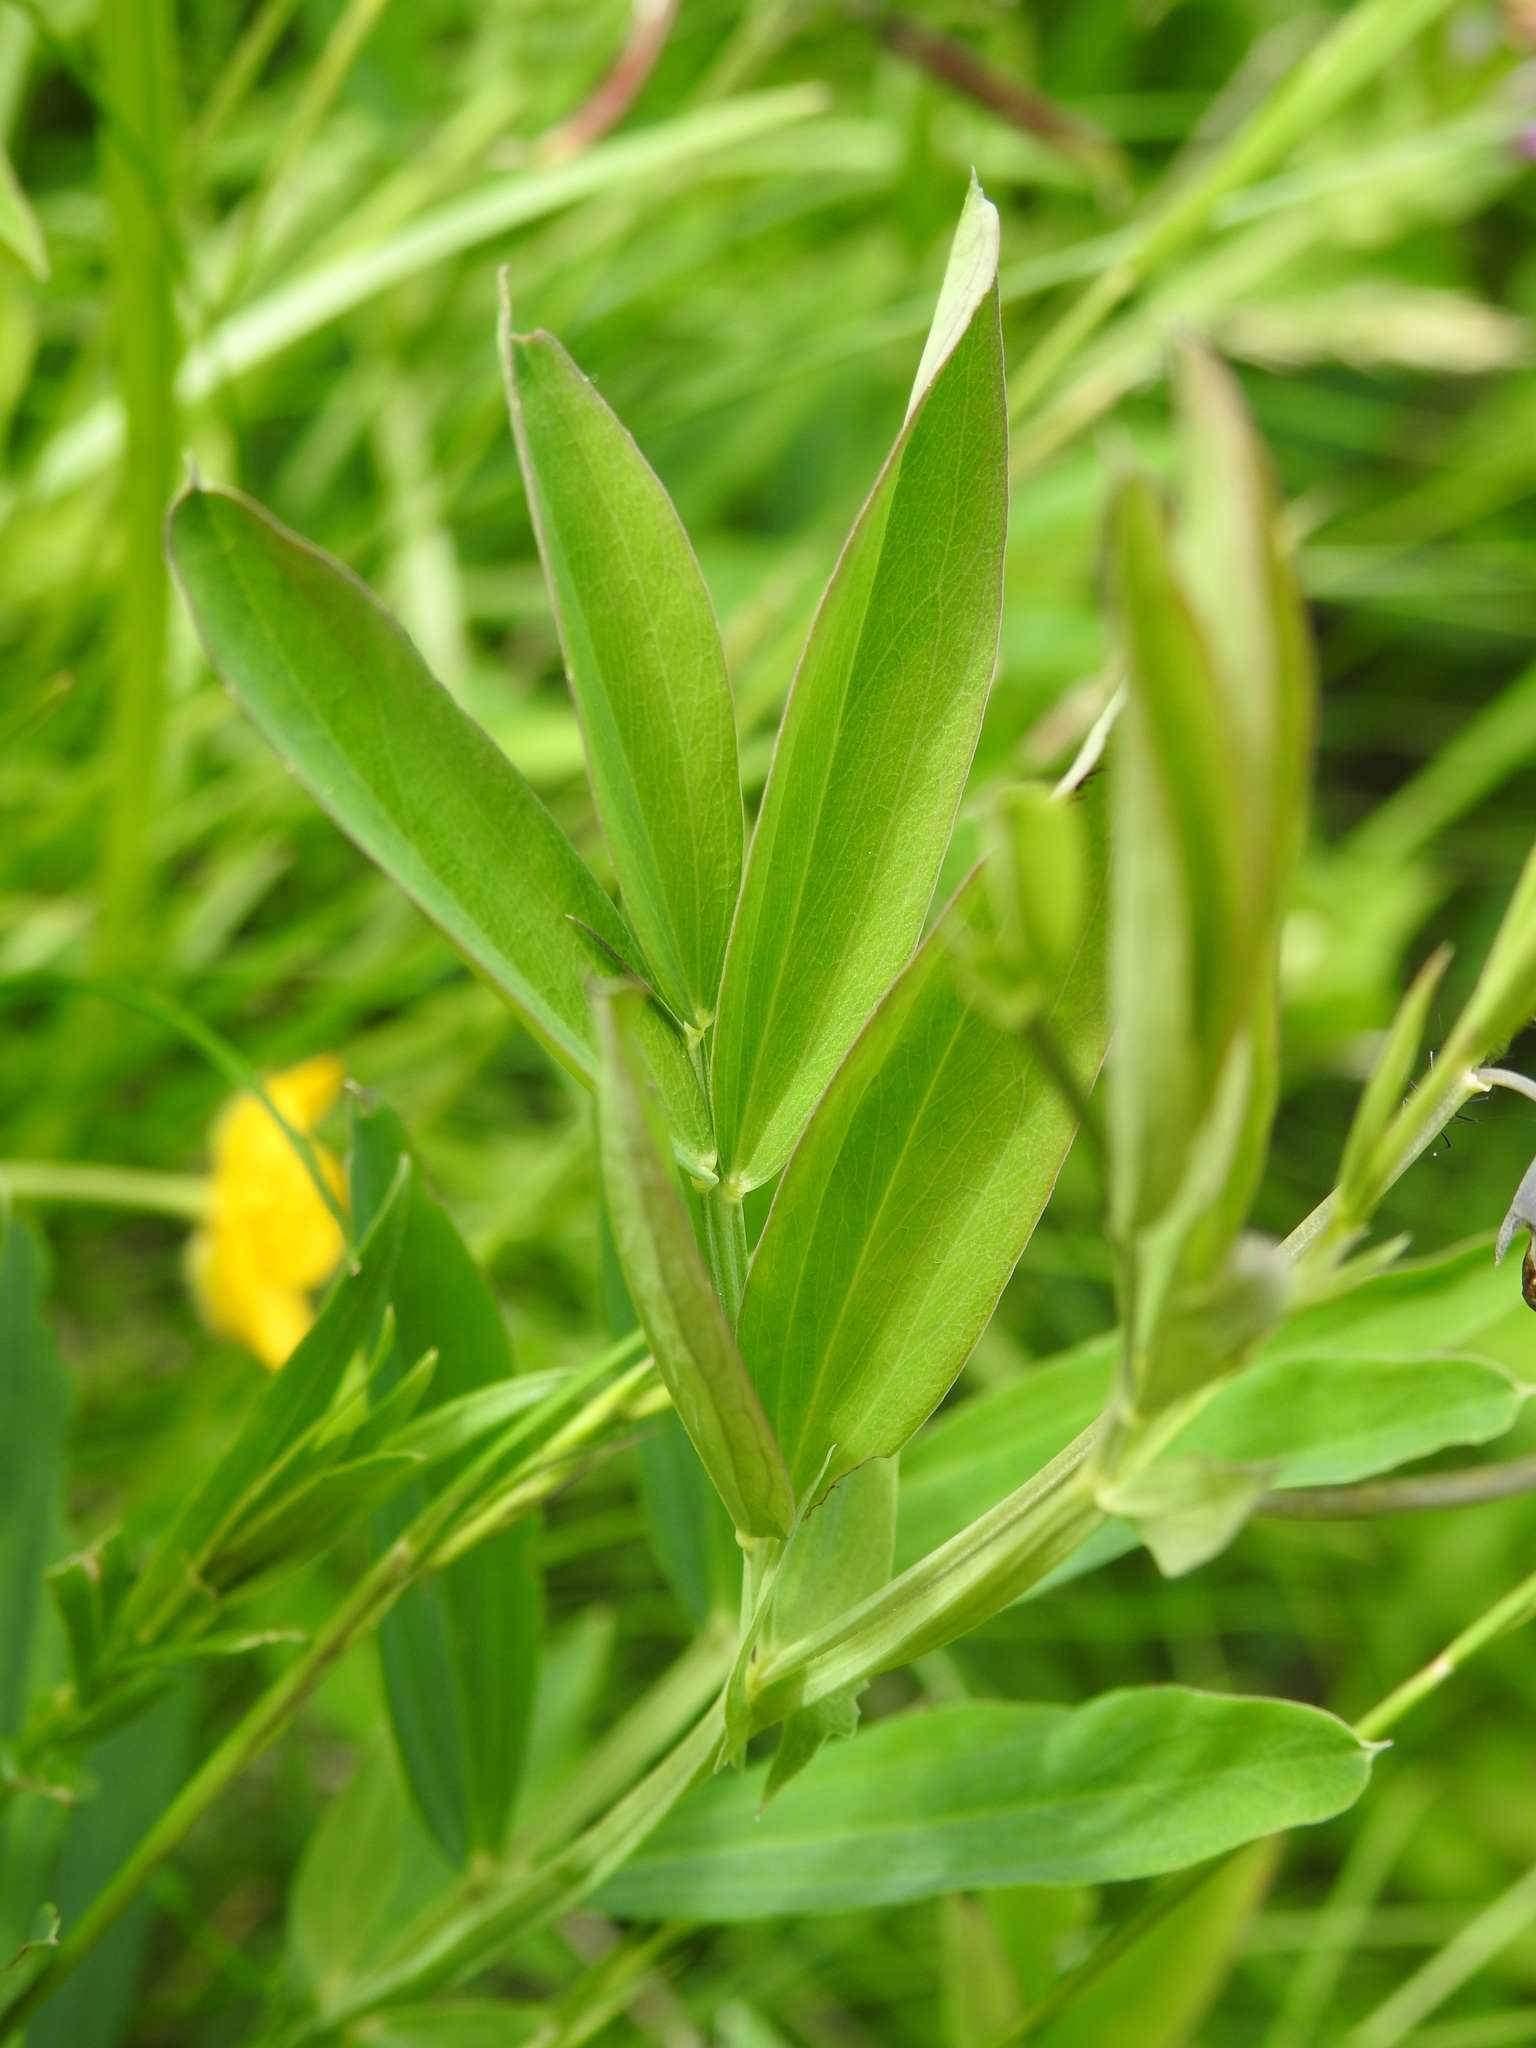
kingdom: Plantae
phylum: Tracheophyta
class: Magnoliopsida
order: Fabales
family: Fabaceae
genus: Lathyrus
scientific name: Lathyrus linifolius
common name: Bitter-vetch
